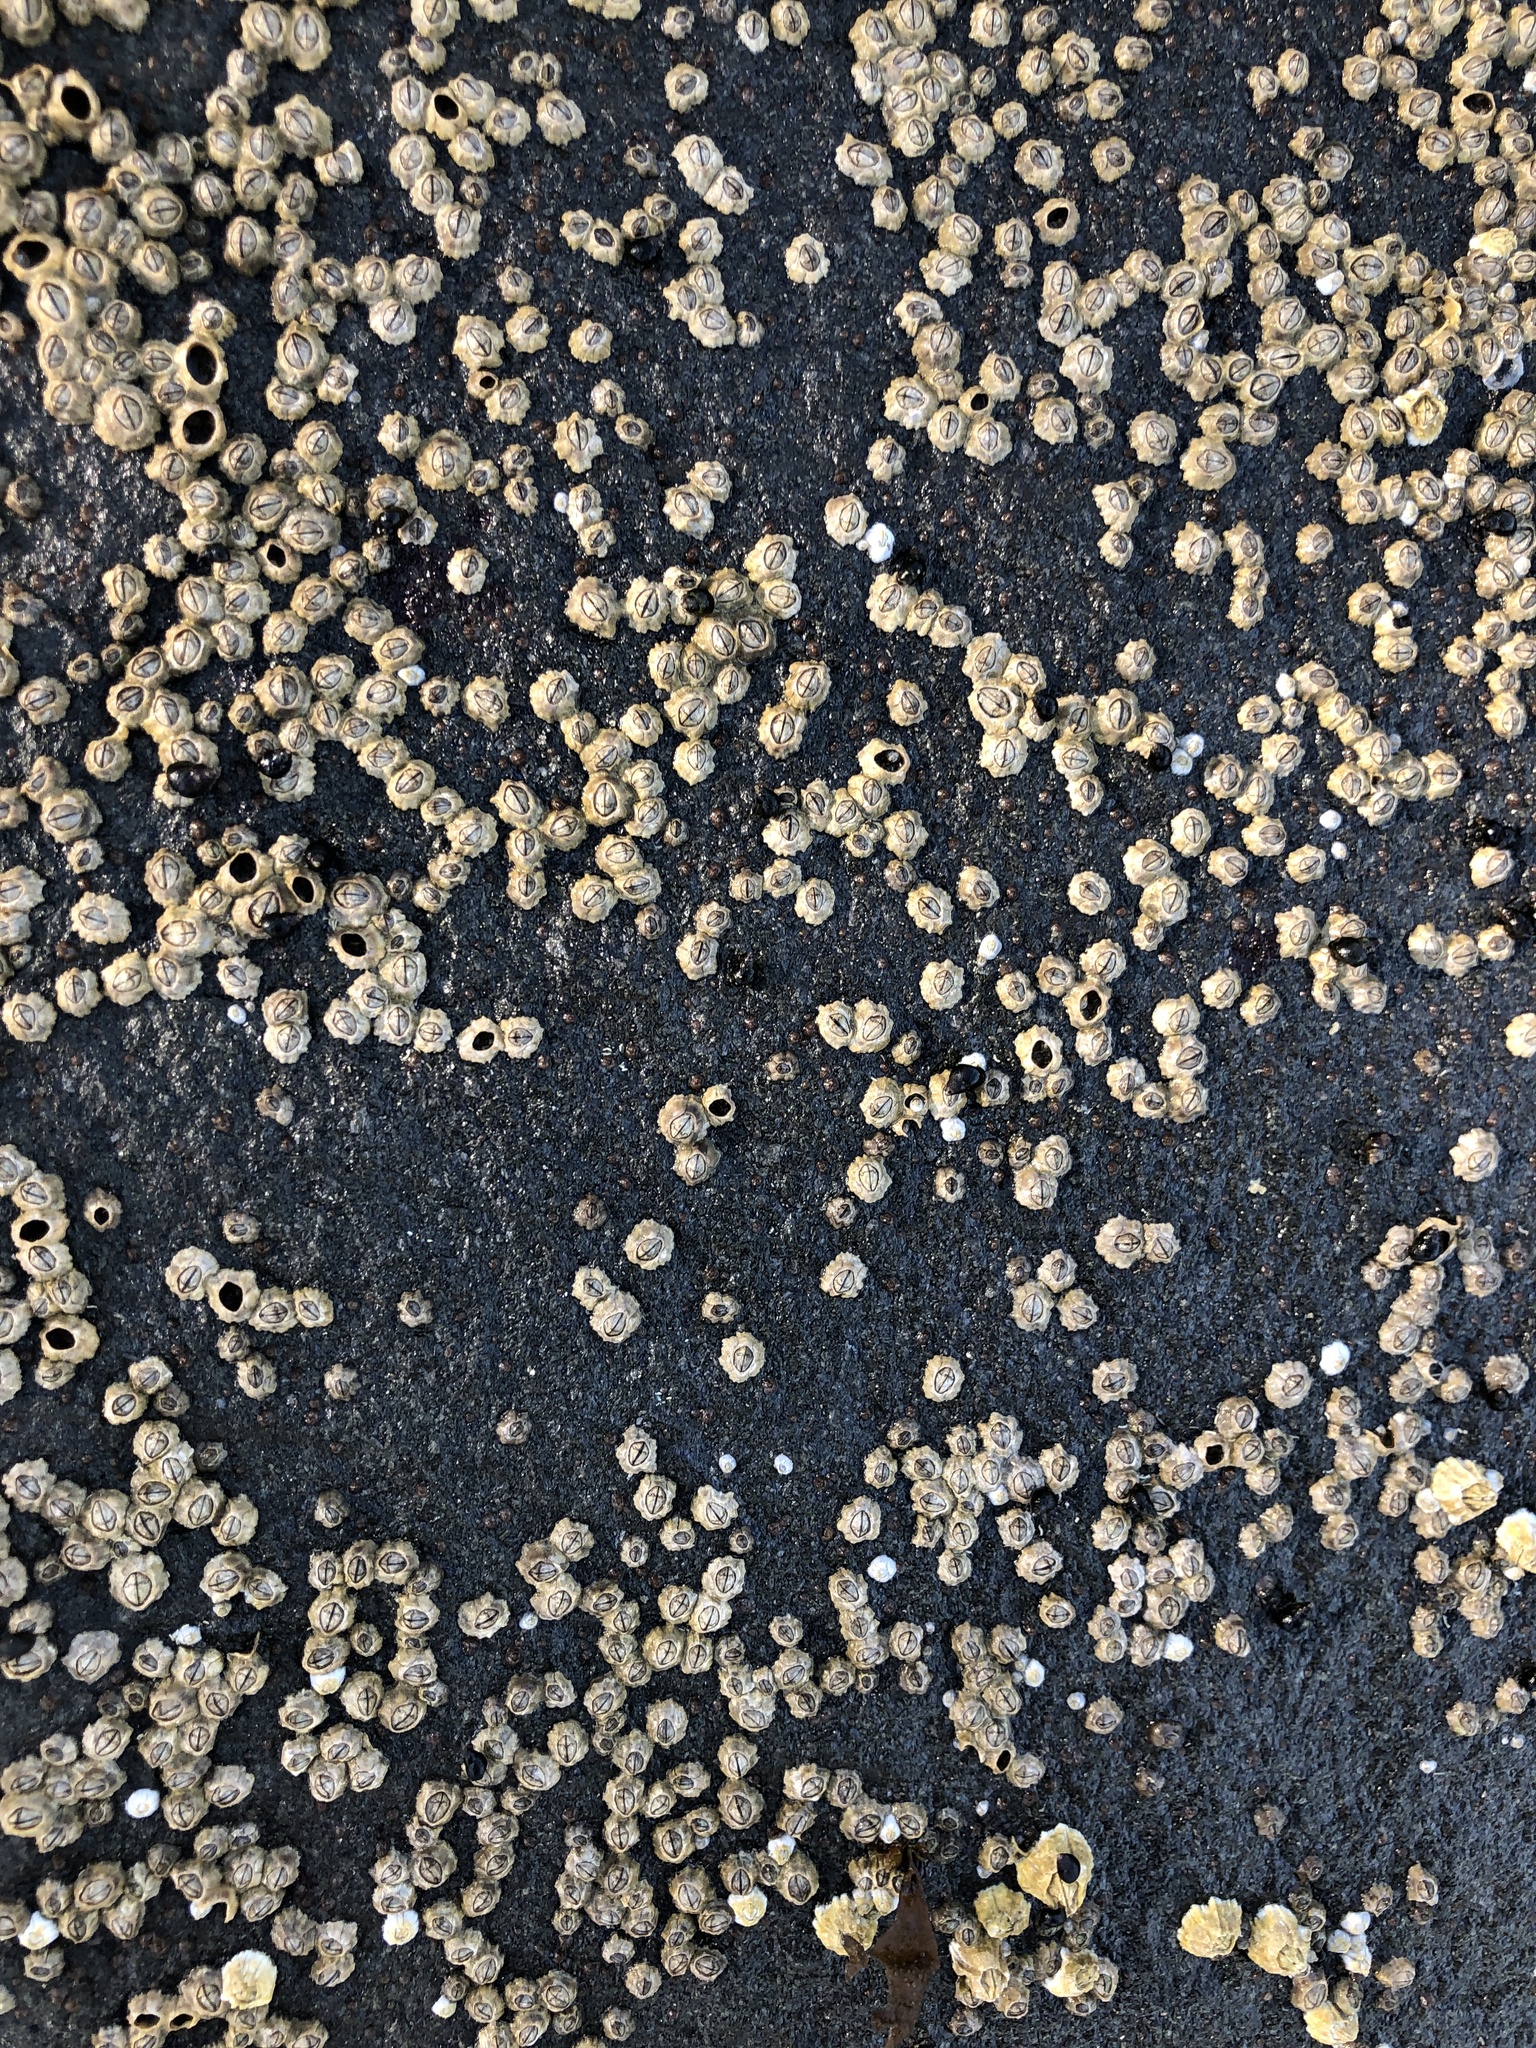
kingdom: Animalia
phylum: Arthropoda
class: Maxillopoda
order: Sessilia
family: Chthamalidae
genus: Chthamalus
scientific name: Chthamalus dalli
